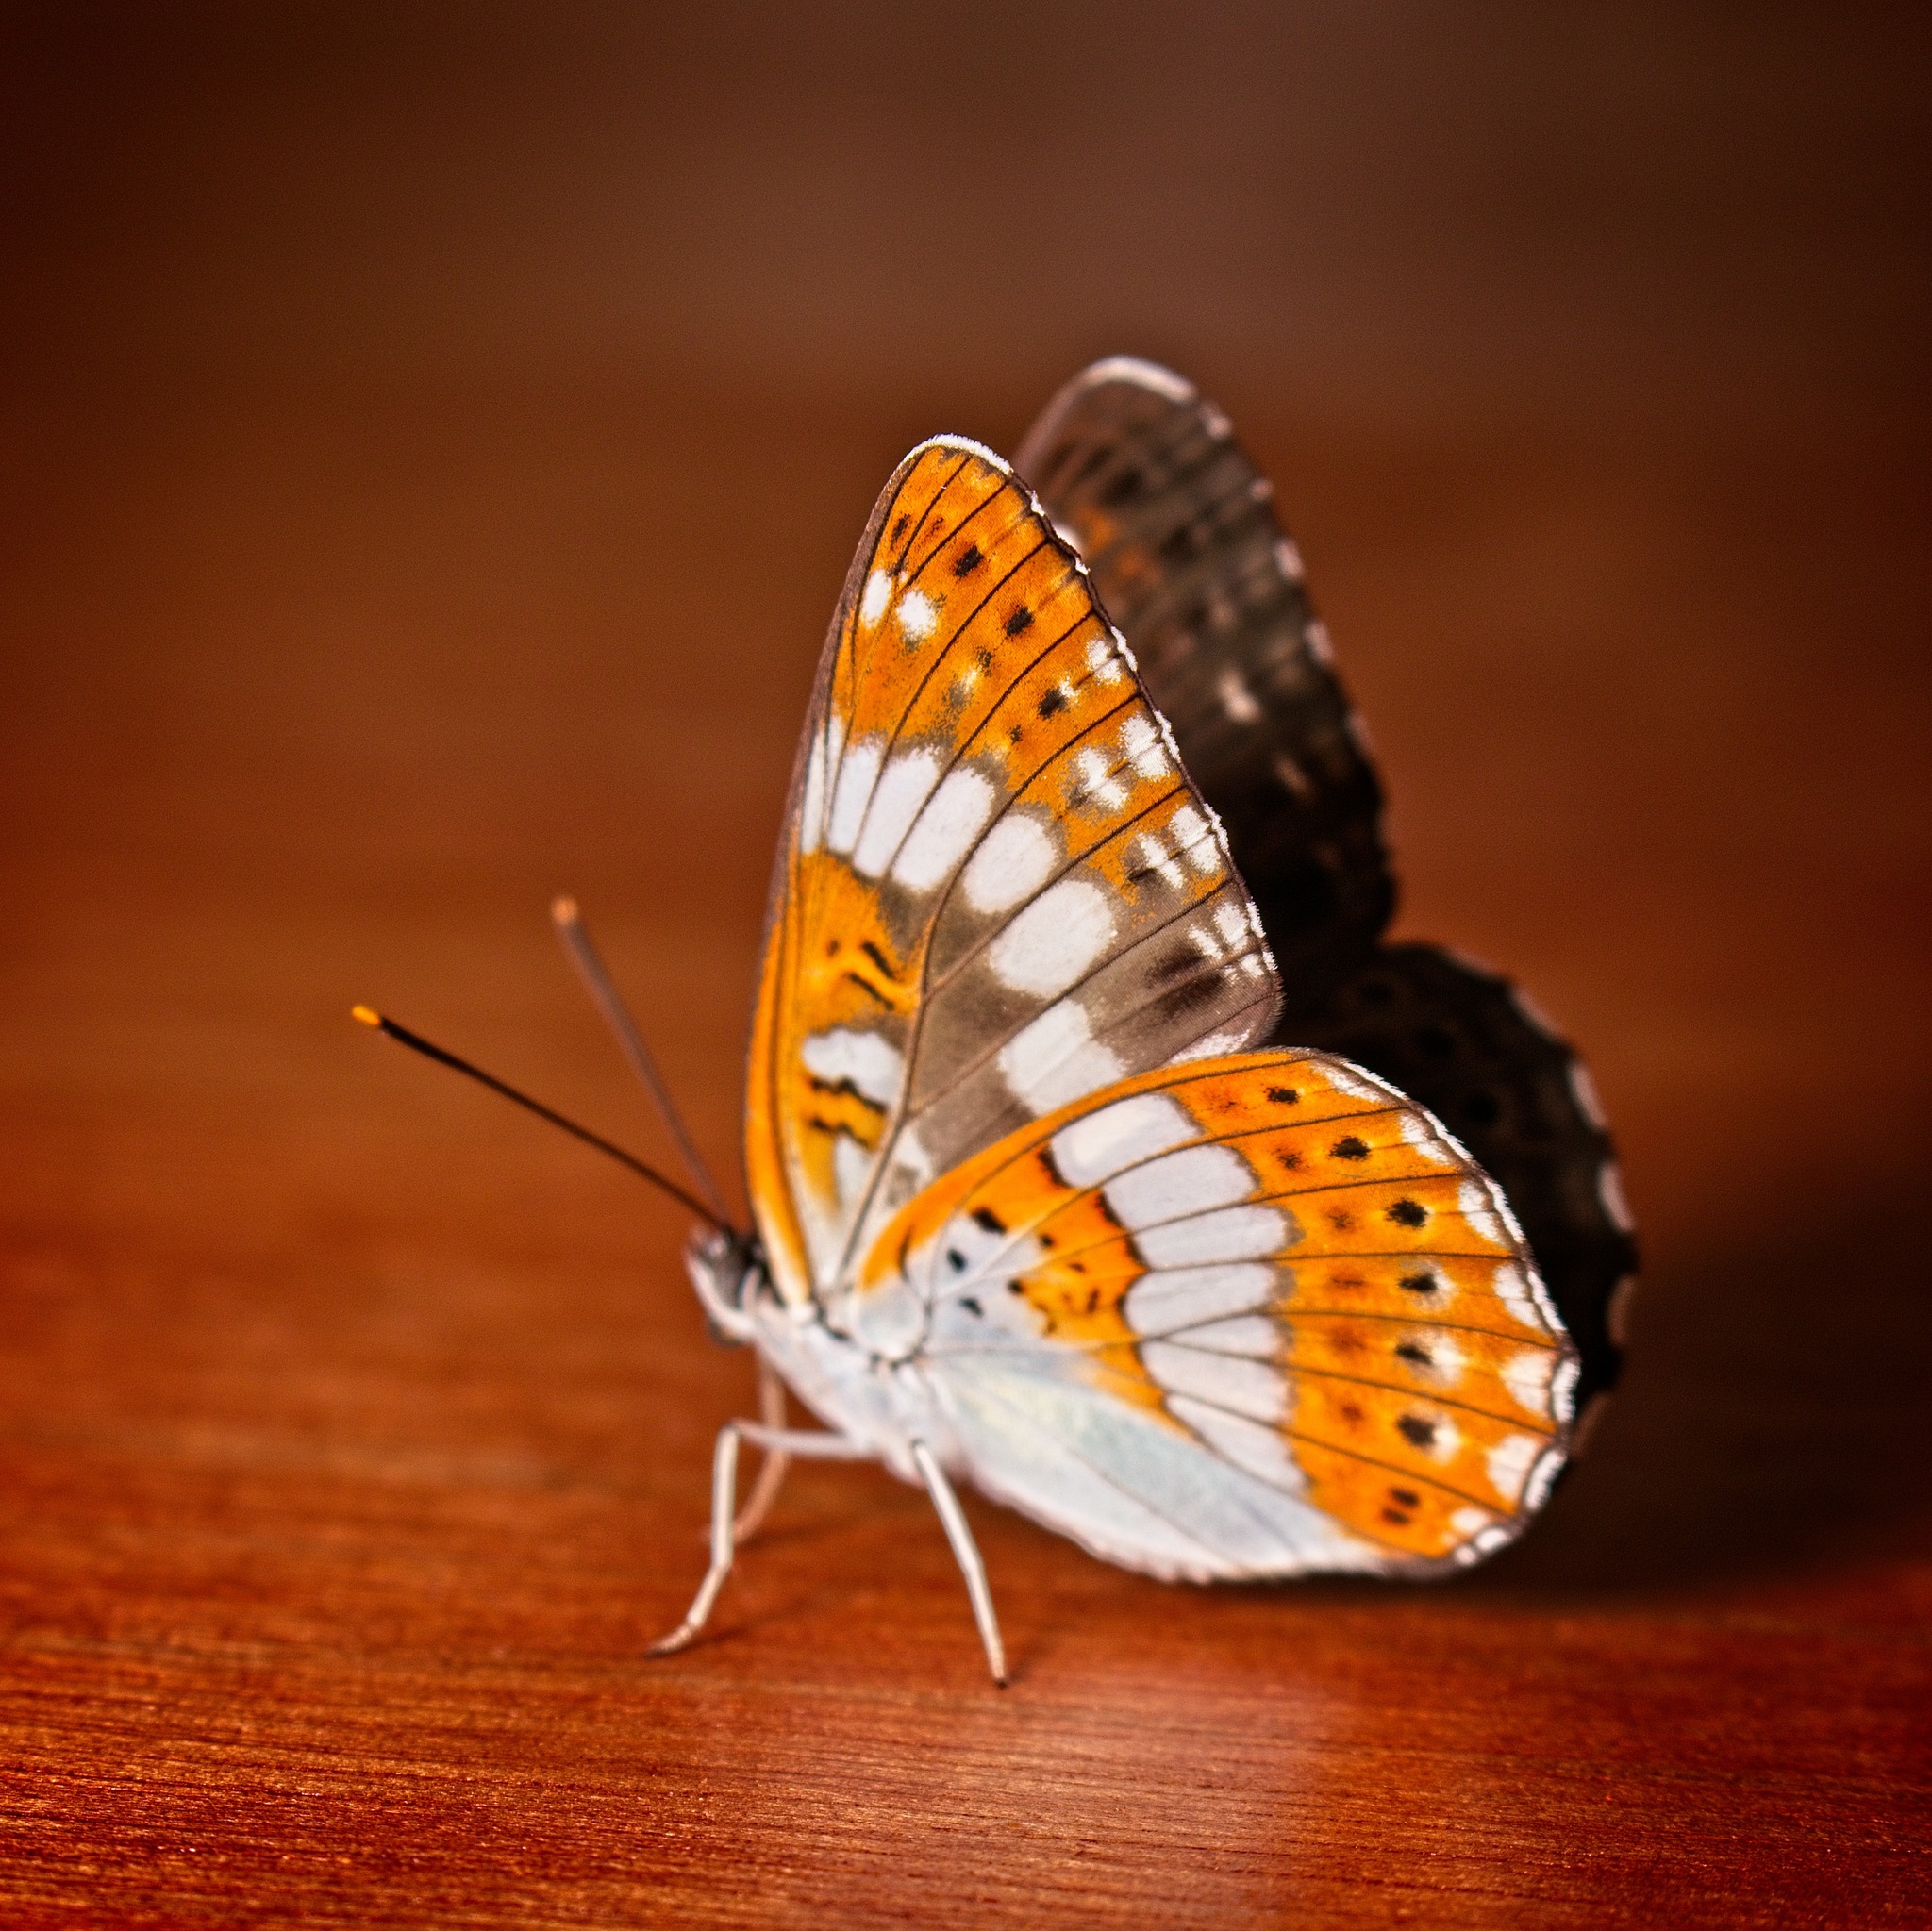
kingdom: Animalia
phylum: Arthropoda
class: Insecta
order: Lepidoptera
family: Nymphalidae
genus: Ladoga
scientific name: Ladoga camilla
